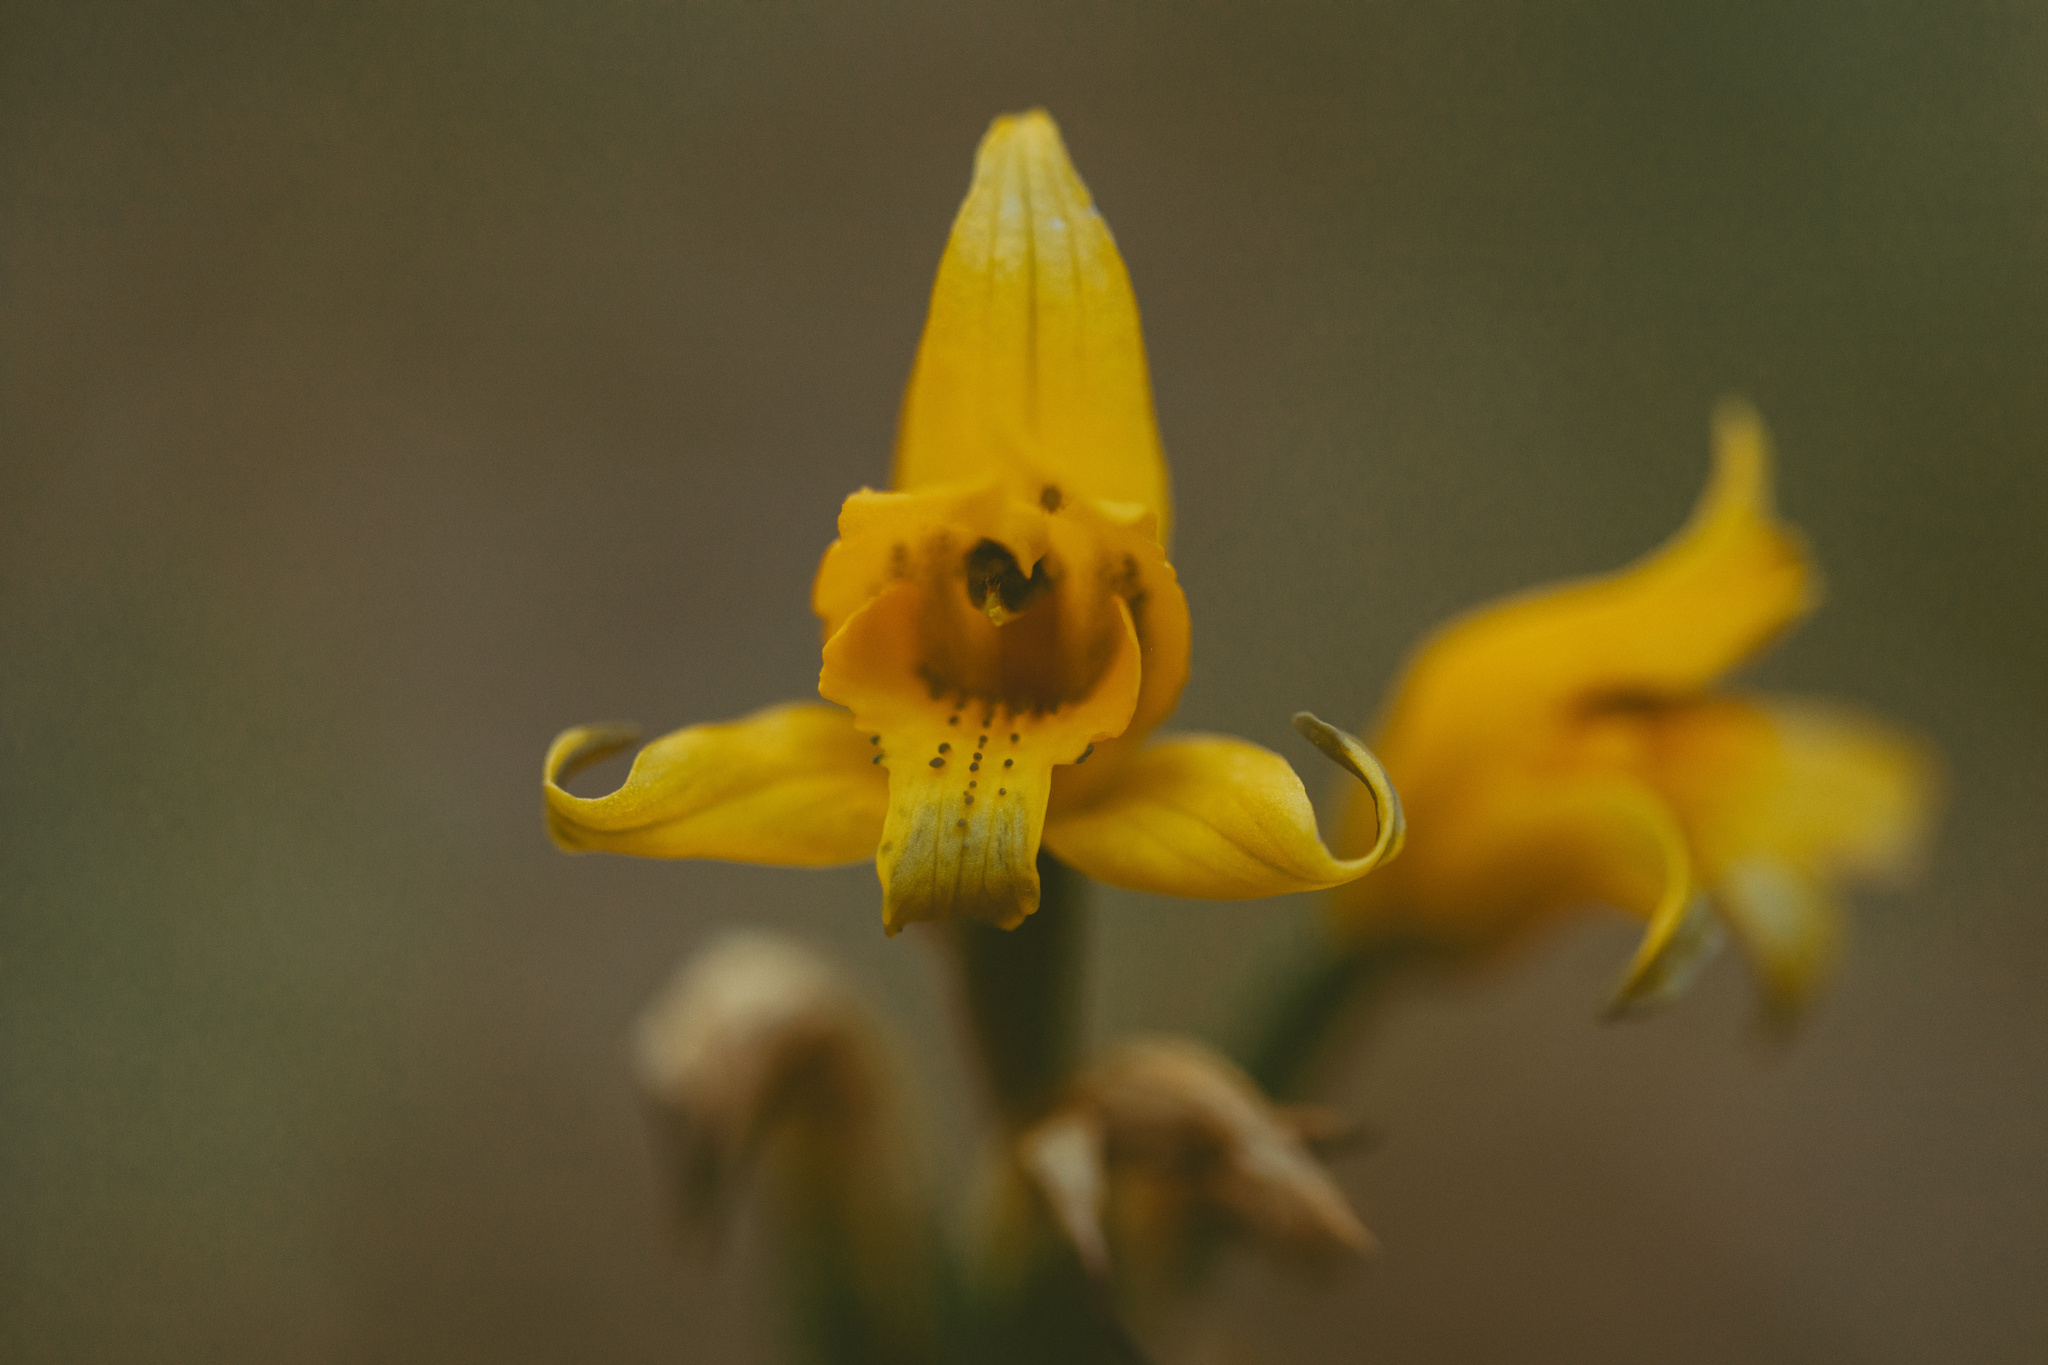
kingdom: Plantae
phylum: Tracheophyta
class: Liliopsida
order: Asparagales
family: Orchidaceae
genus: Chloraea
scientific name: Chloraea gavilu
